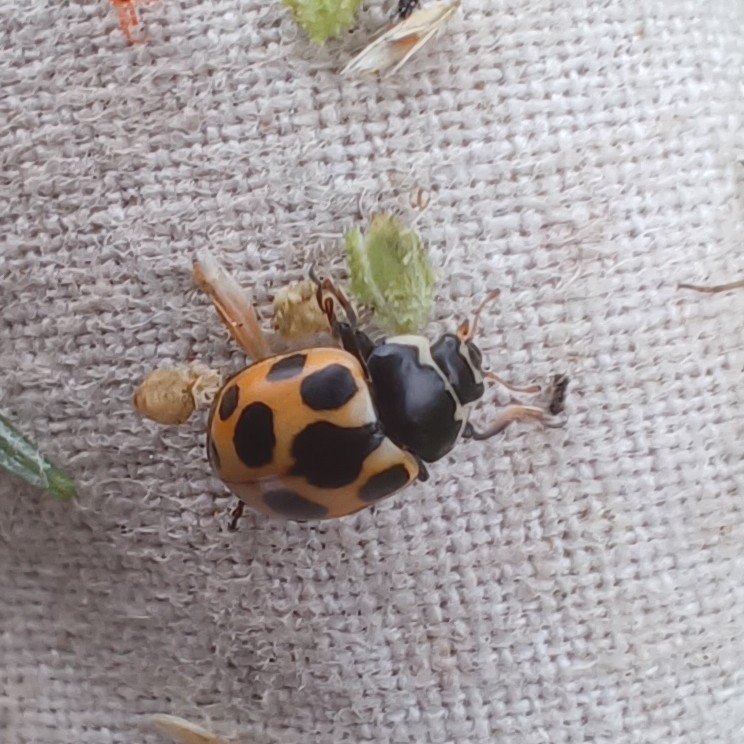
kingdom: Animalia
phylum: Arthropoda
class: Insecta
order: Coleoptera
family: Coccinellidae
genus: Ceratomegilla
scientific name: Ceratomegilla notata
